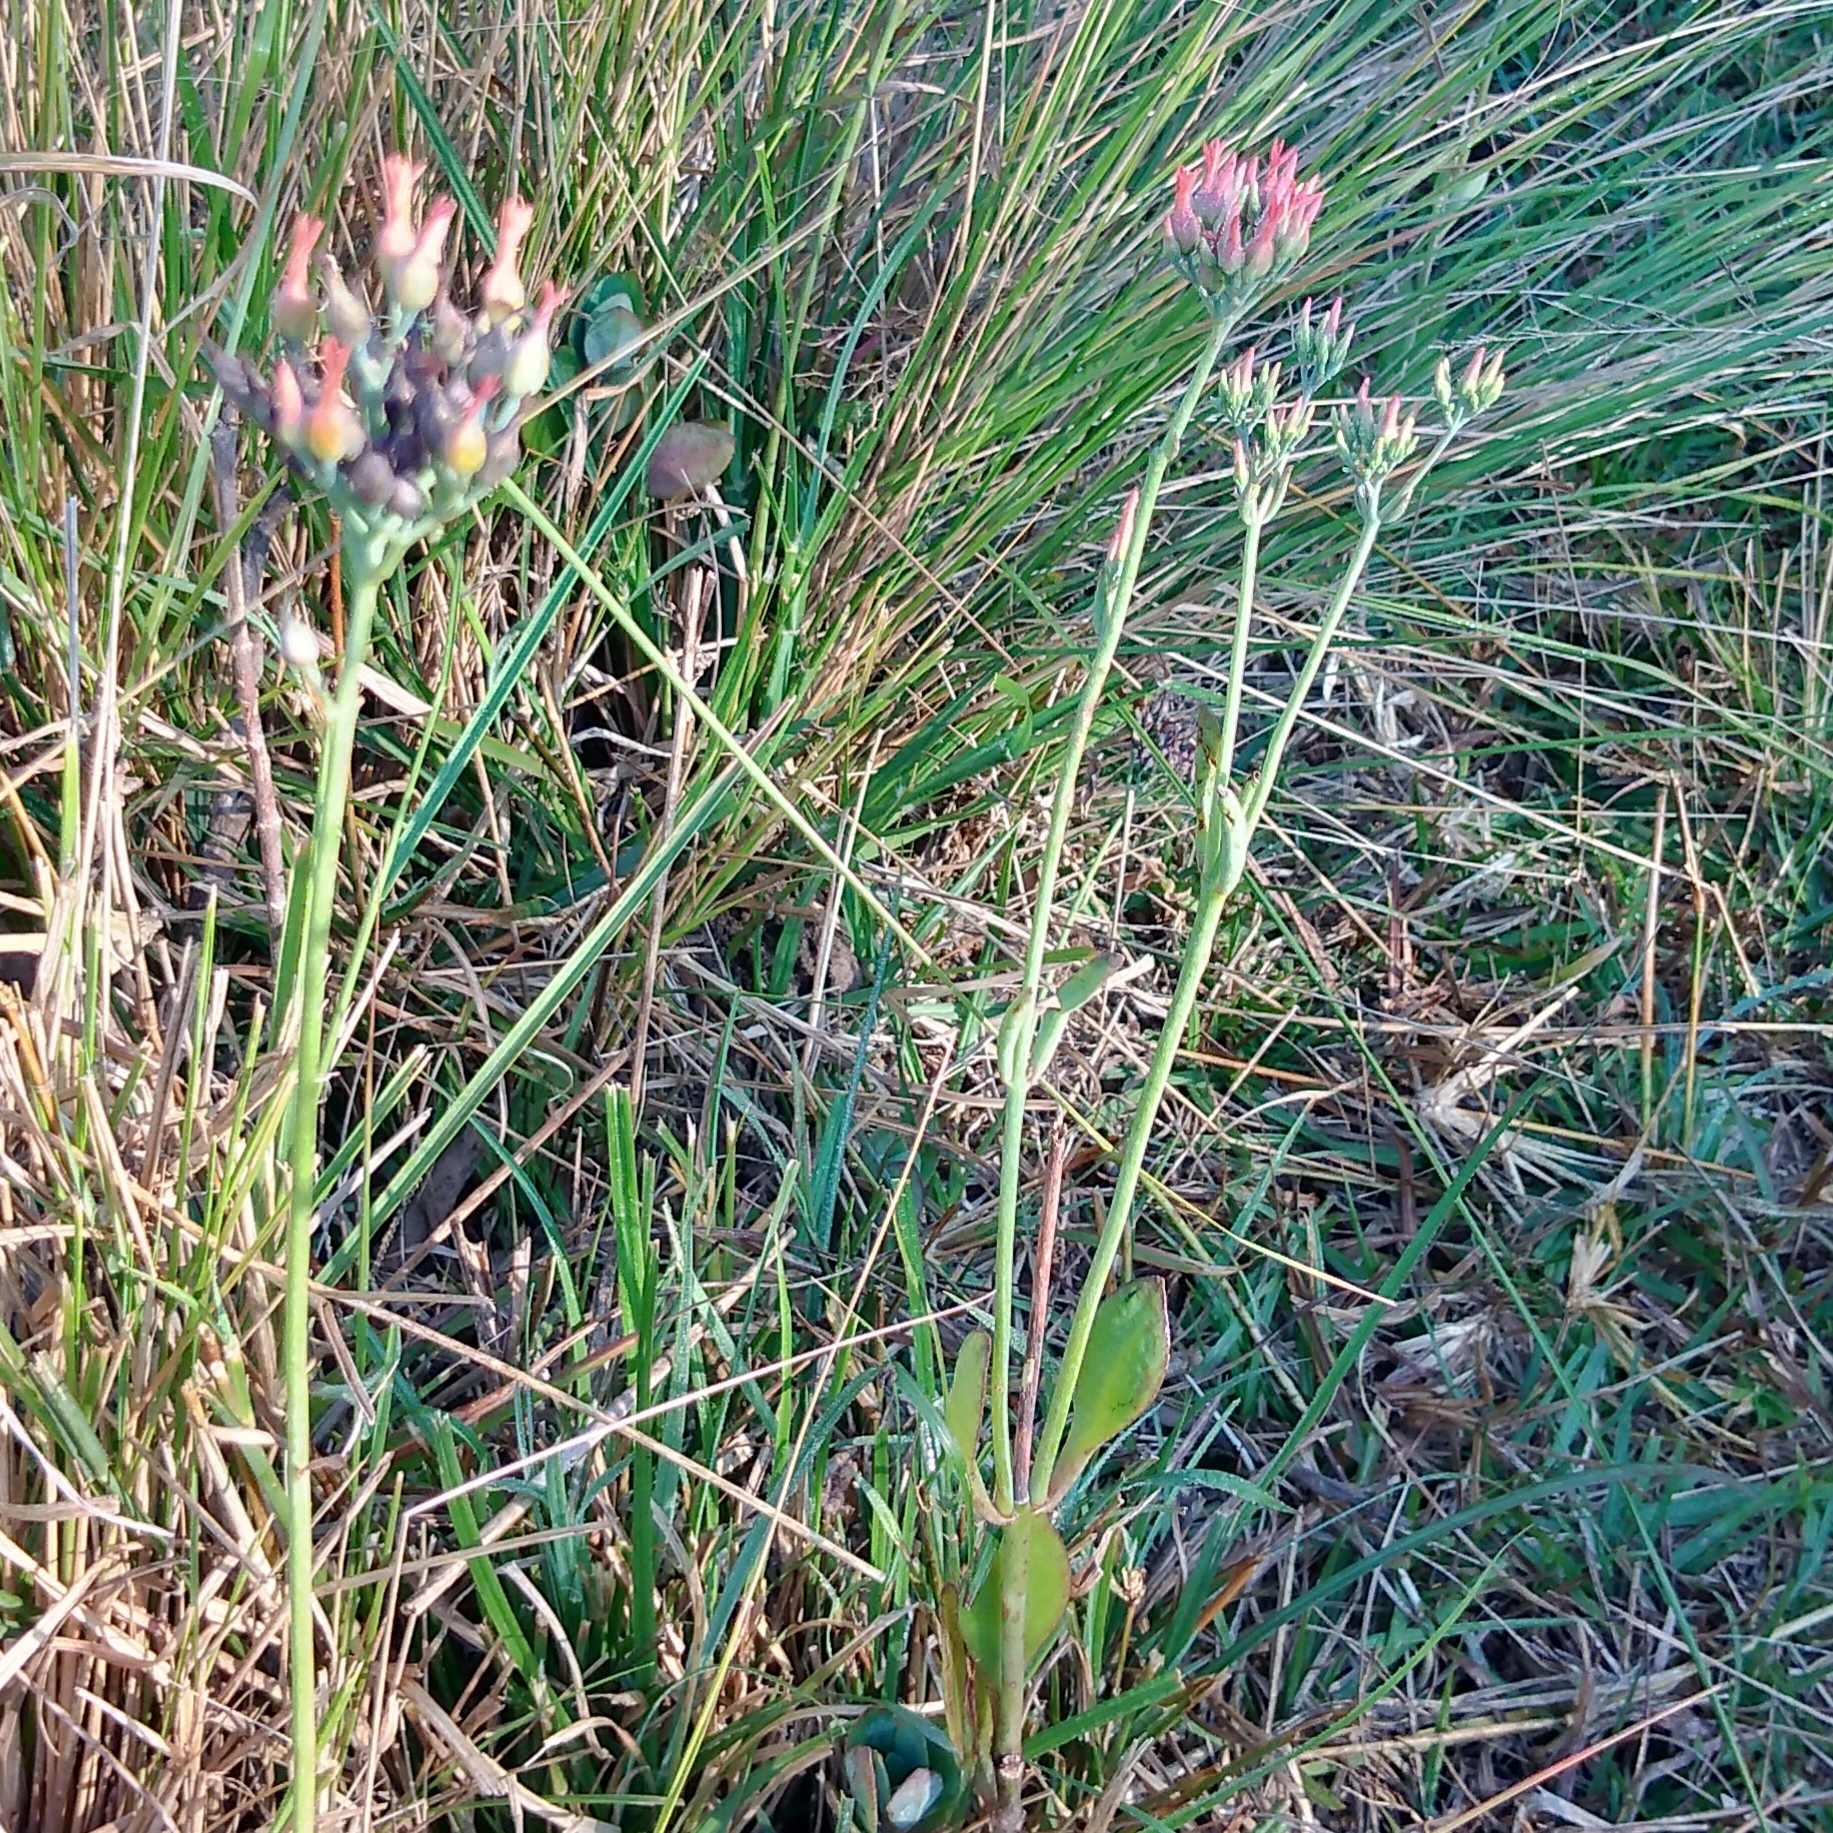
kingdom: Plantae
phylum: Tracheophyta
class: Magnoliopsida
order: Saxifragales
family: Crassulaceae
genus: Kalanchoe
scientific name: Kalanchoe rotundifolia
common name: Common kalanchoe
